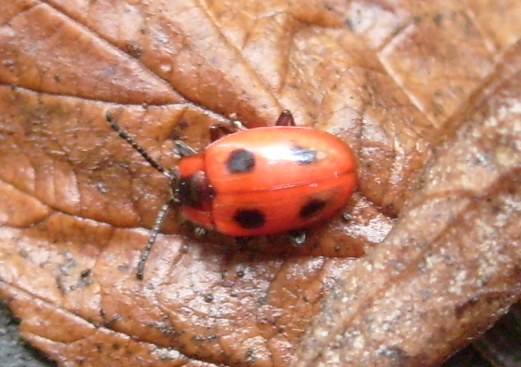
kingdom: Animalia
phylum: Arthropoda
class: Insecta
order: Coleoptera
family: Endomychidae
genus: Endomychus
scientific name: Endomychus coccineus
